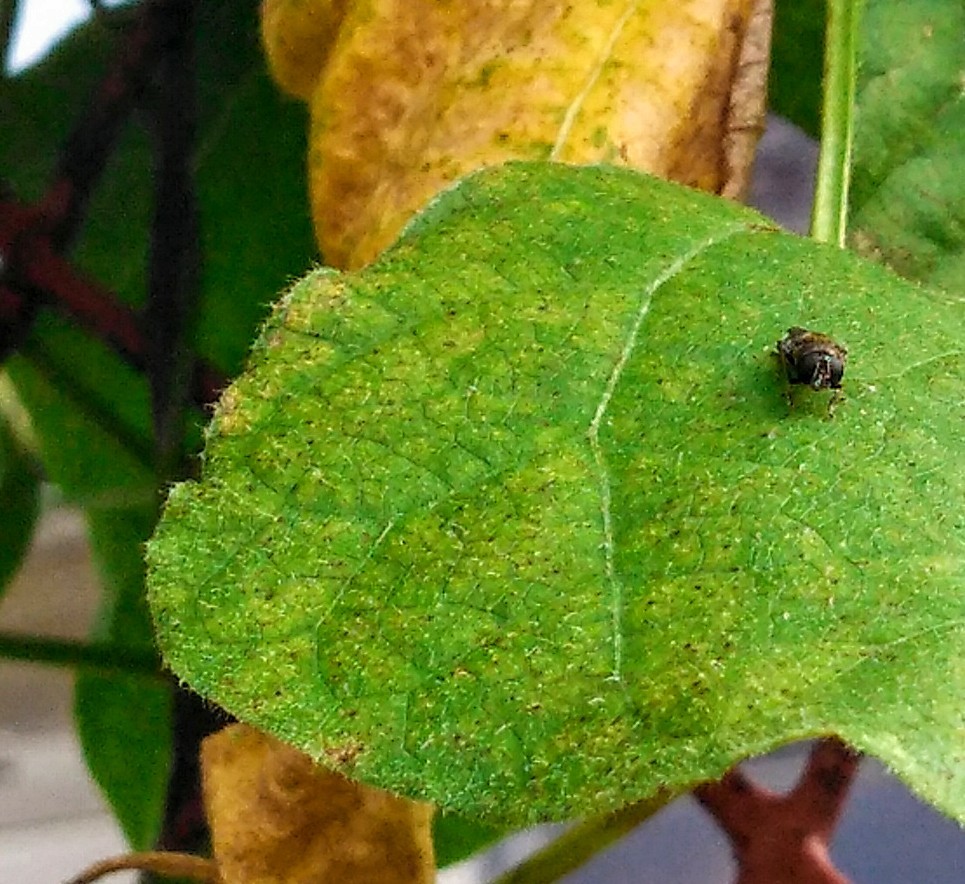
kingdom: Animalia
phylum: Arthropoda
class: Insecta
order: Diptera
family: Syrphidae
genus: Eumerus
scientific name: Eumerus
